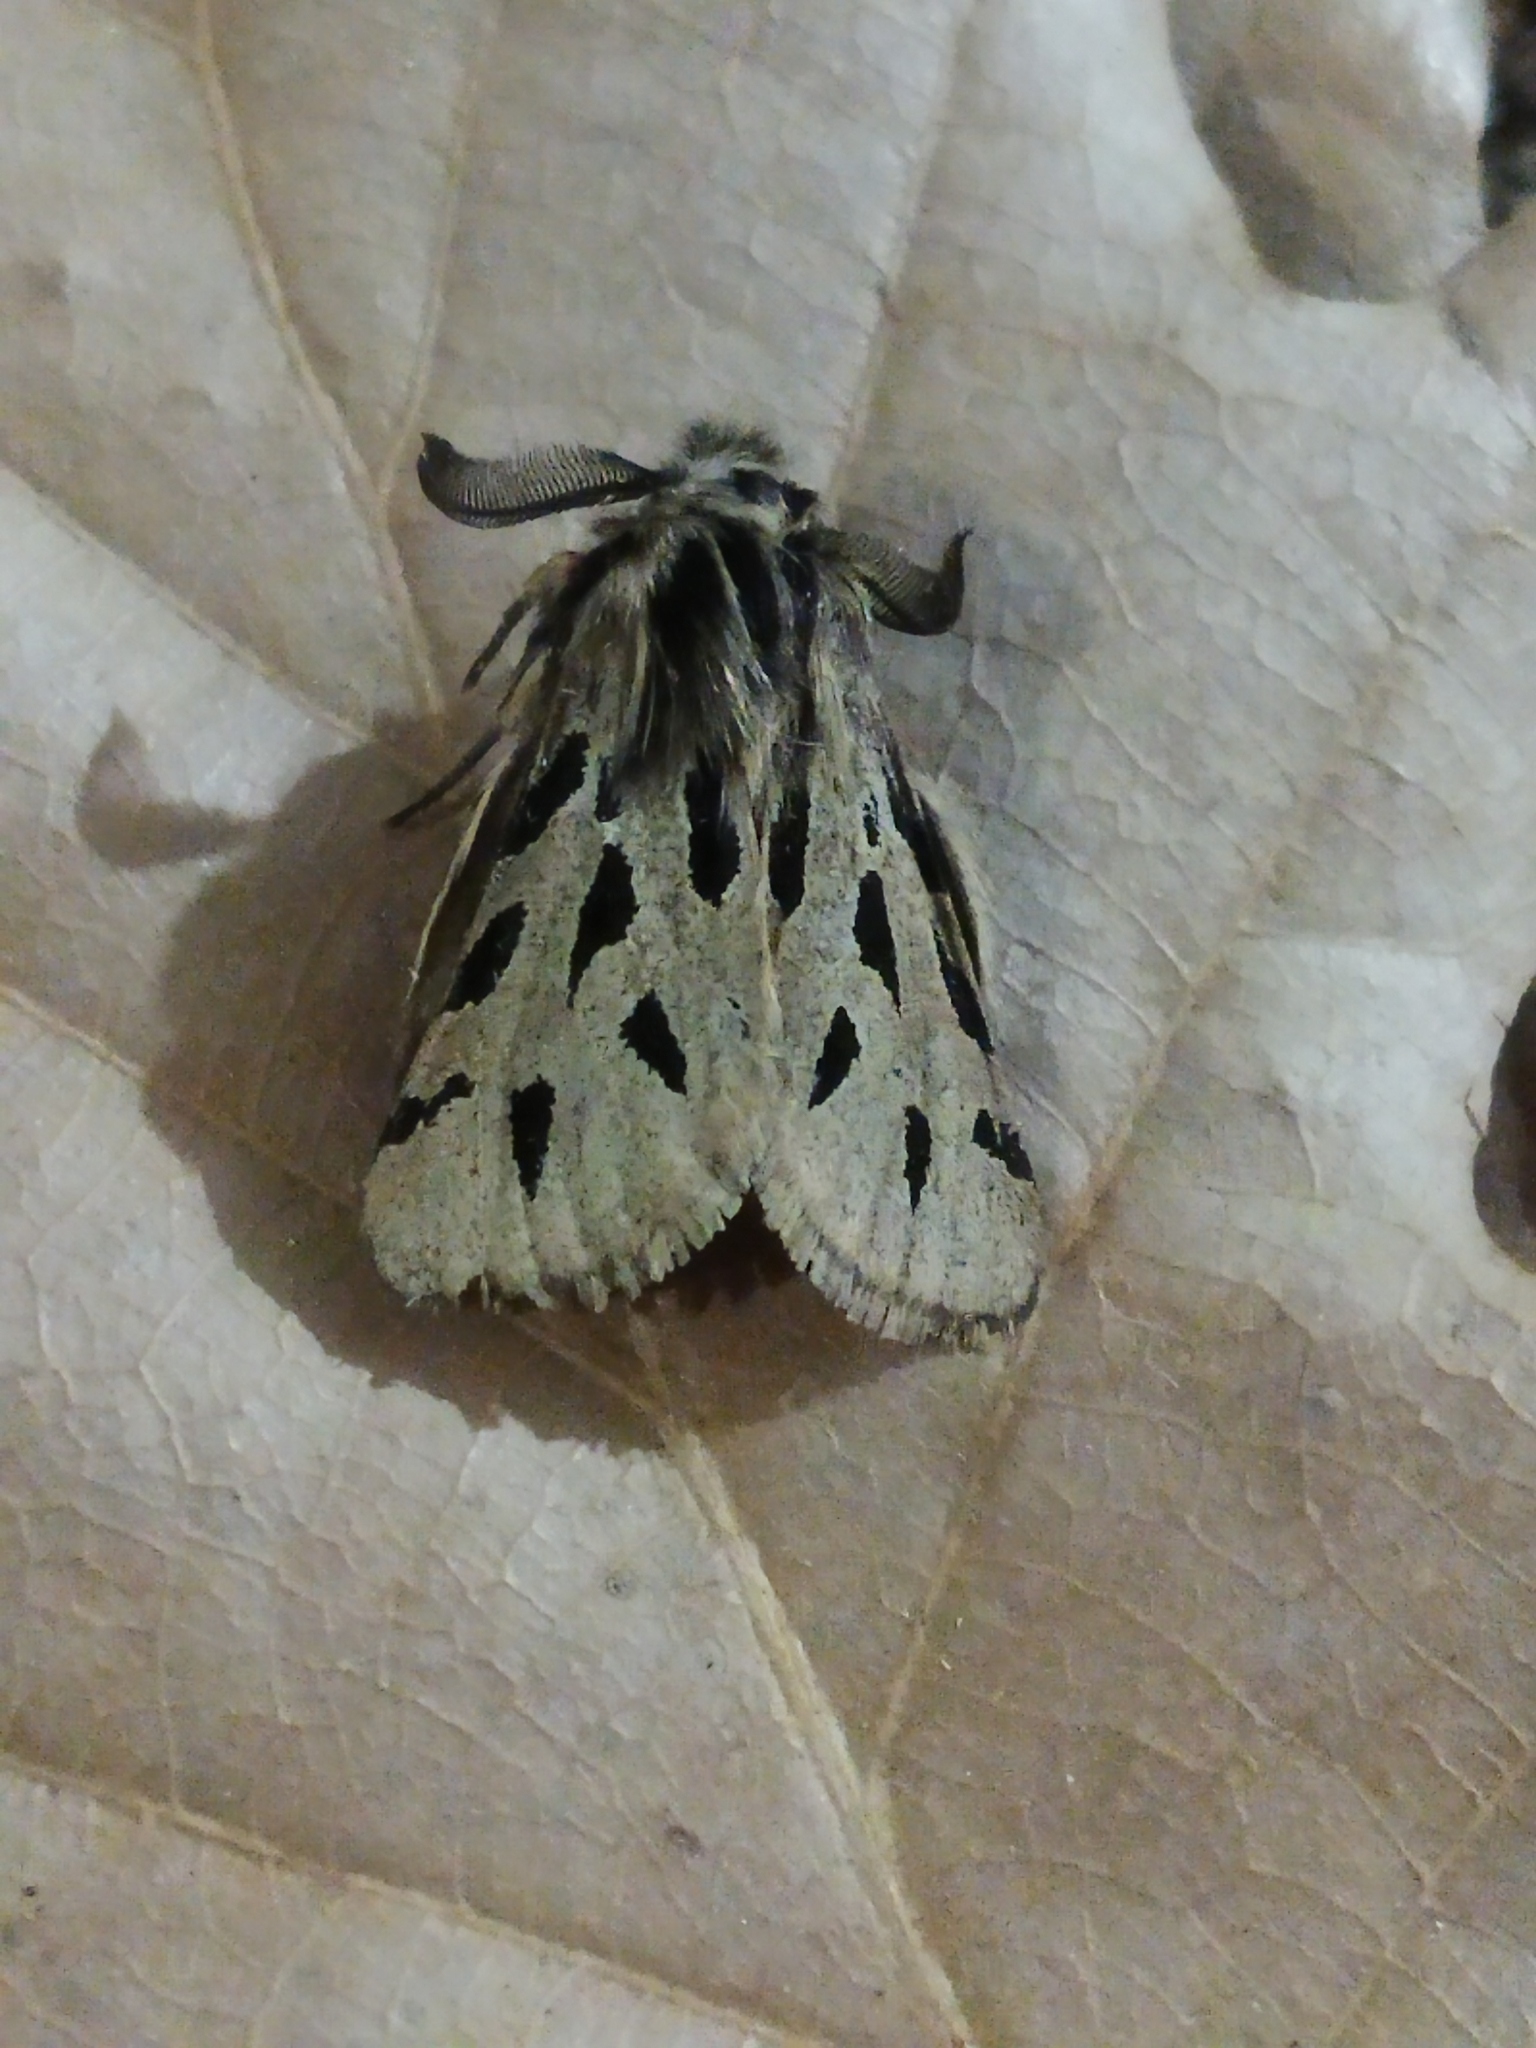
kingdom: Animalia
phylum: Arthropoda
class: Insecta
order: Lepidoptera
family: Erebidae
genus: Ocnogyna
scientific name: Ocnogyna parasita
